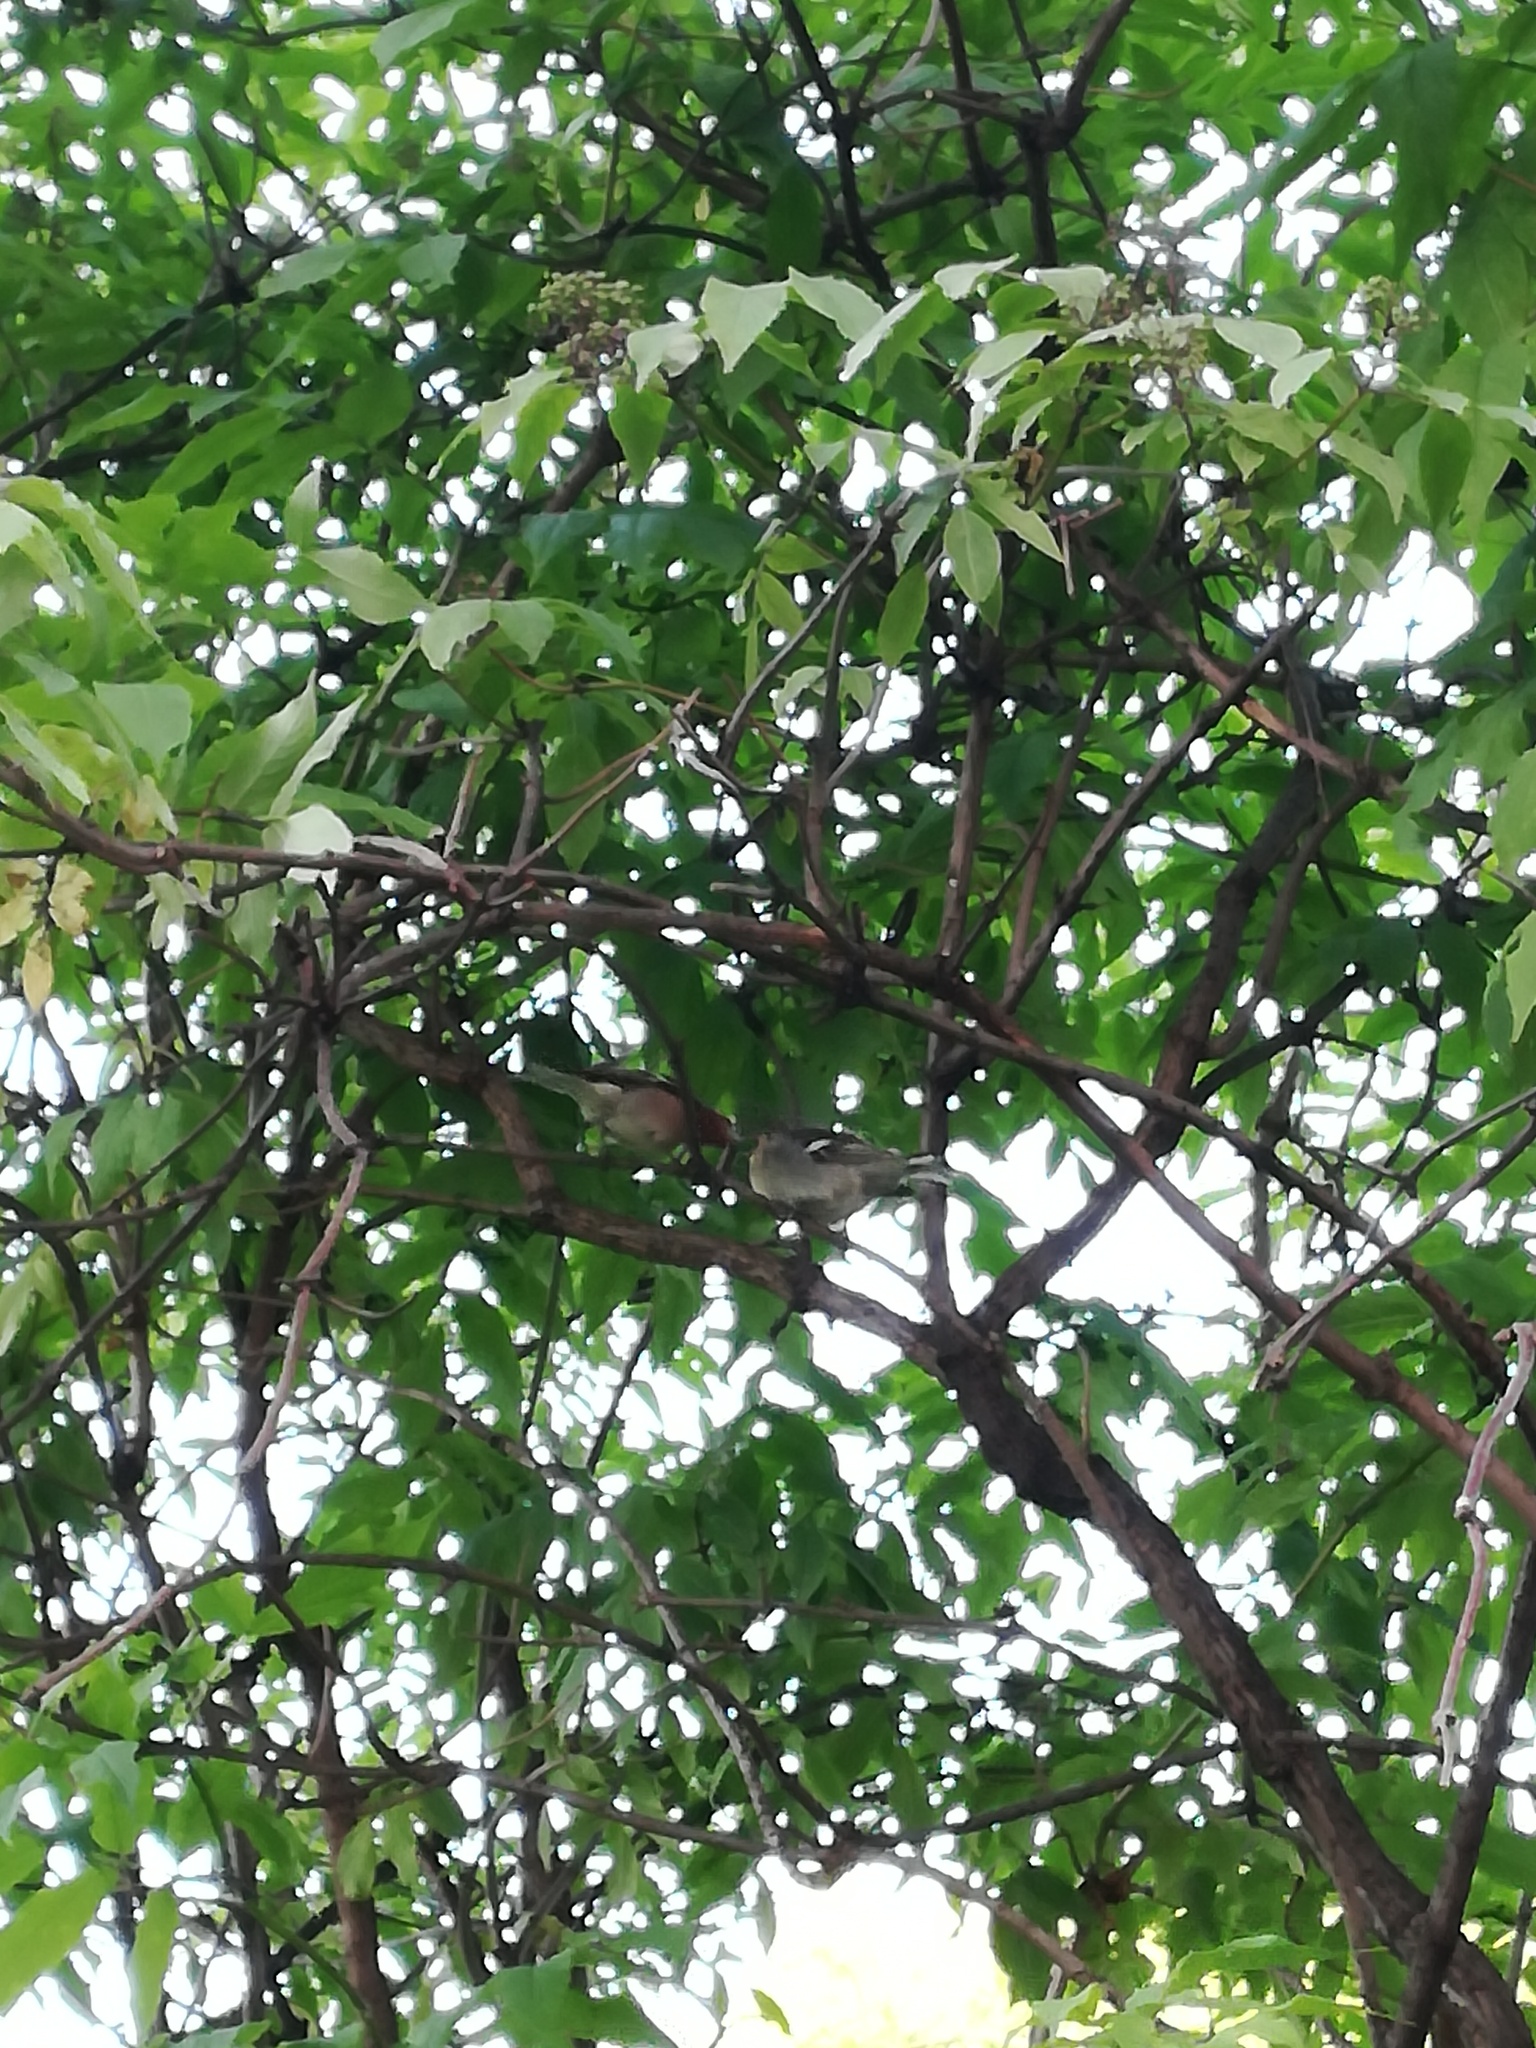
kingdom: Animalia
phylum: Chordata
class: Aves
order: Passeriformes
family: Fringillidae
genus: Fringilla
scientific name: Fringilla coelebs
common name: Common chaffinch
